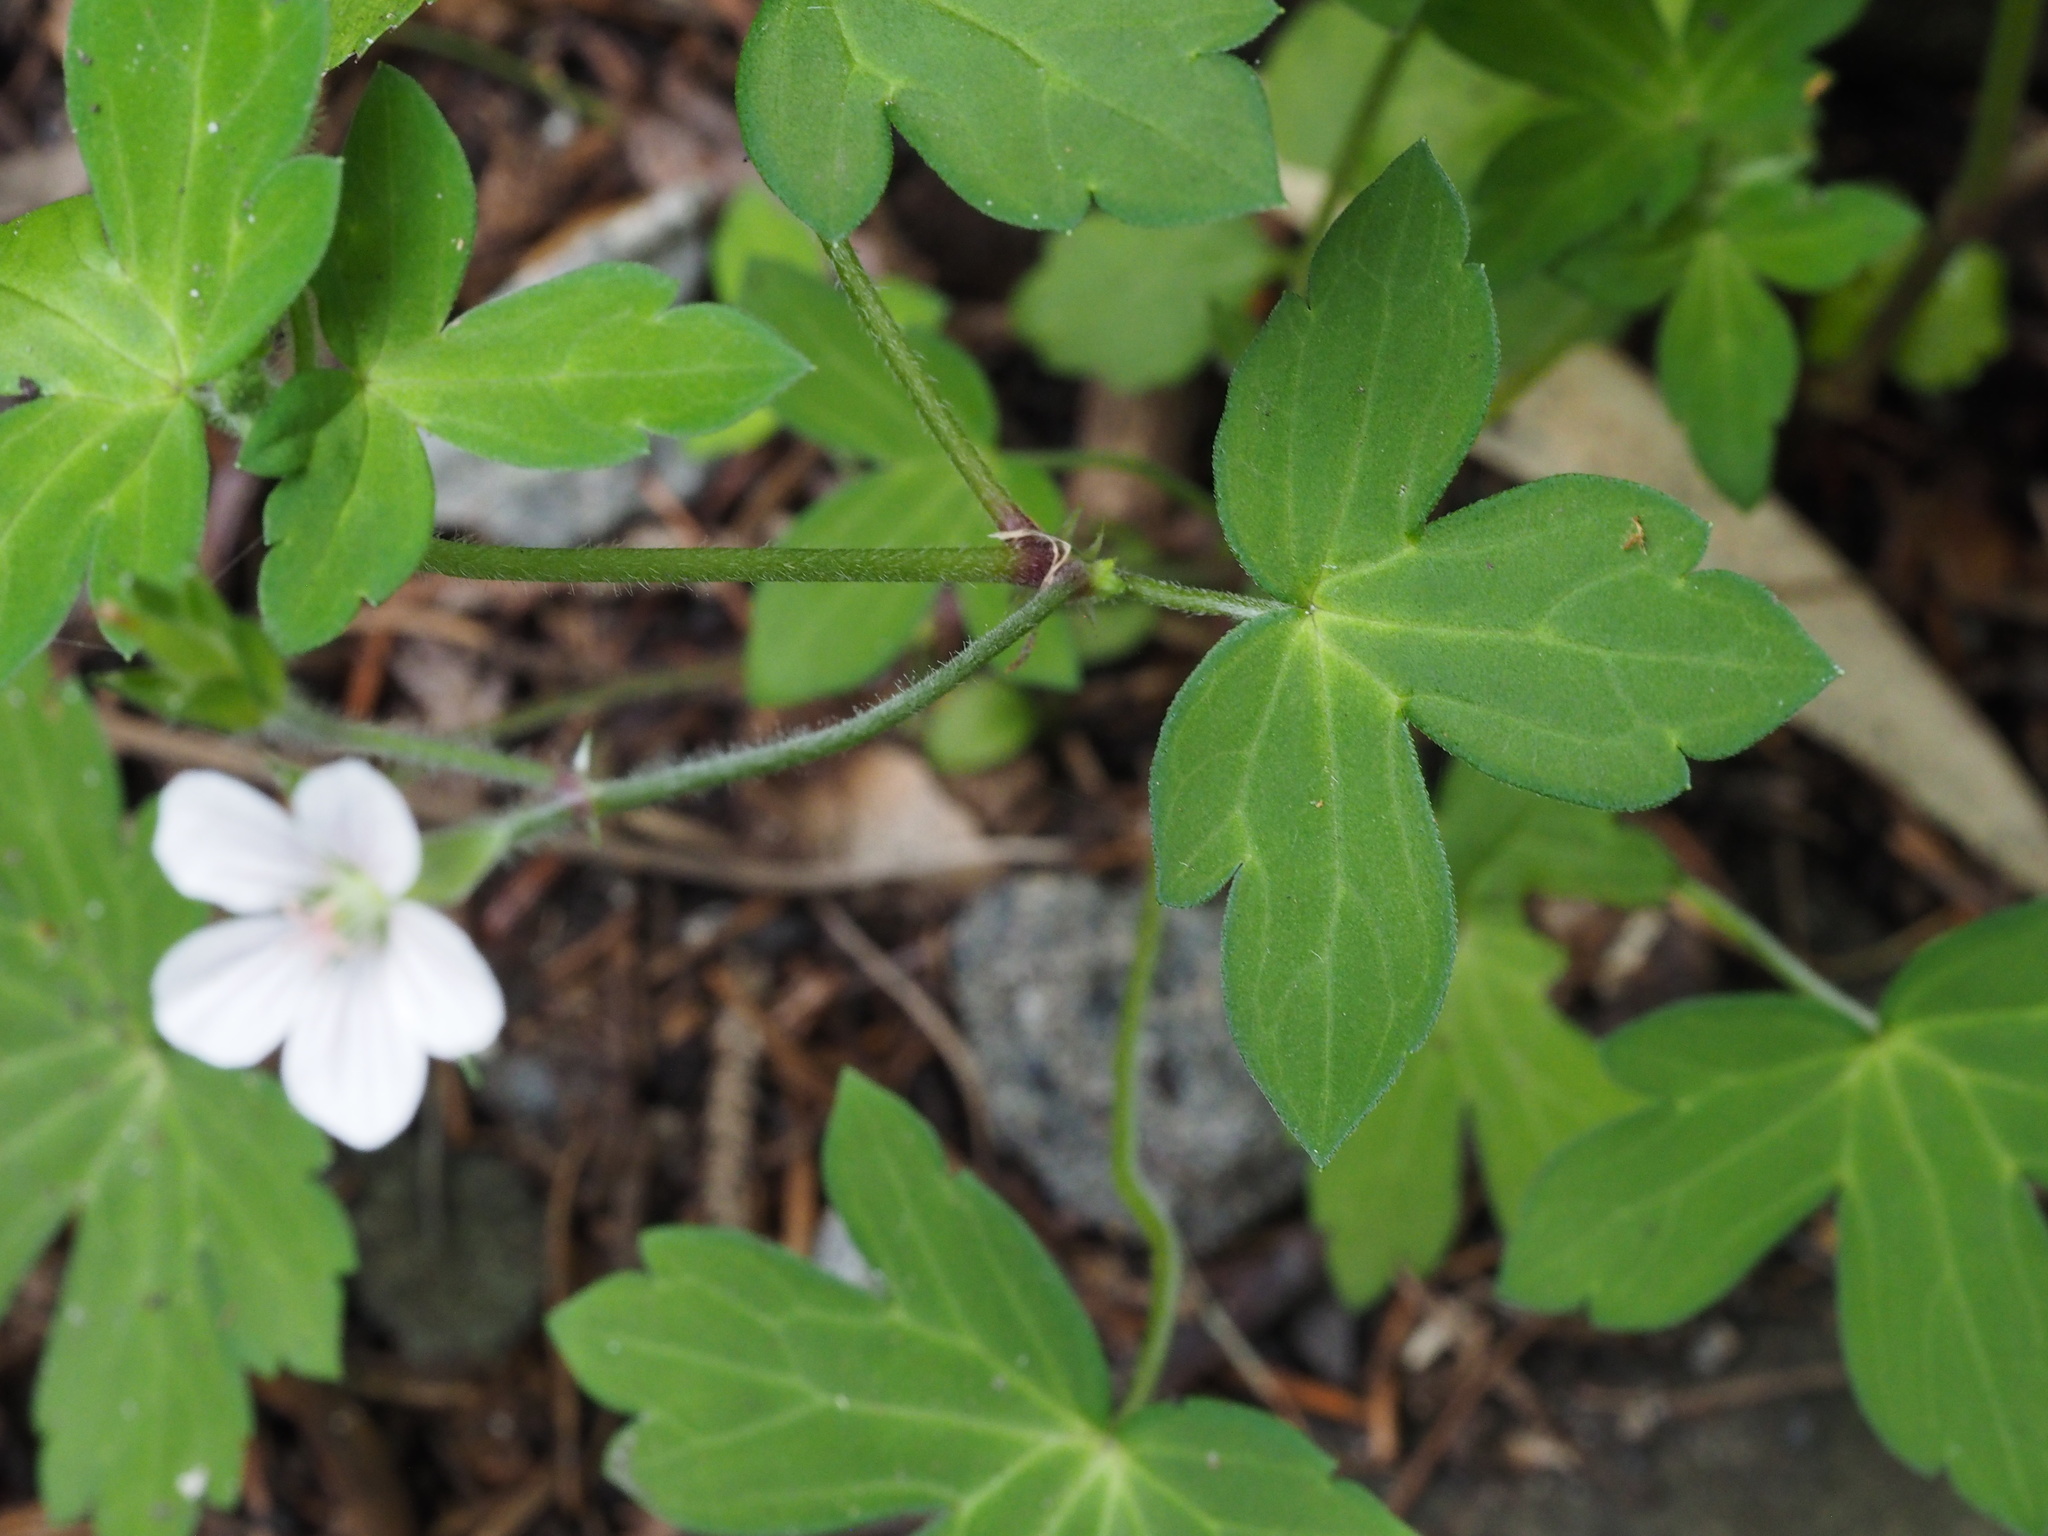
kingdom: Plantae
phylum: Tracheophyta
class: Magnoliopsida
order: Geraniales
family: Geraniaceae
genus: Geranium
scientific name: Geranium thunbergii
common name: Dewdrop crane's-bill
